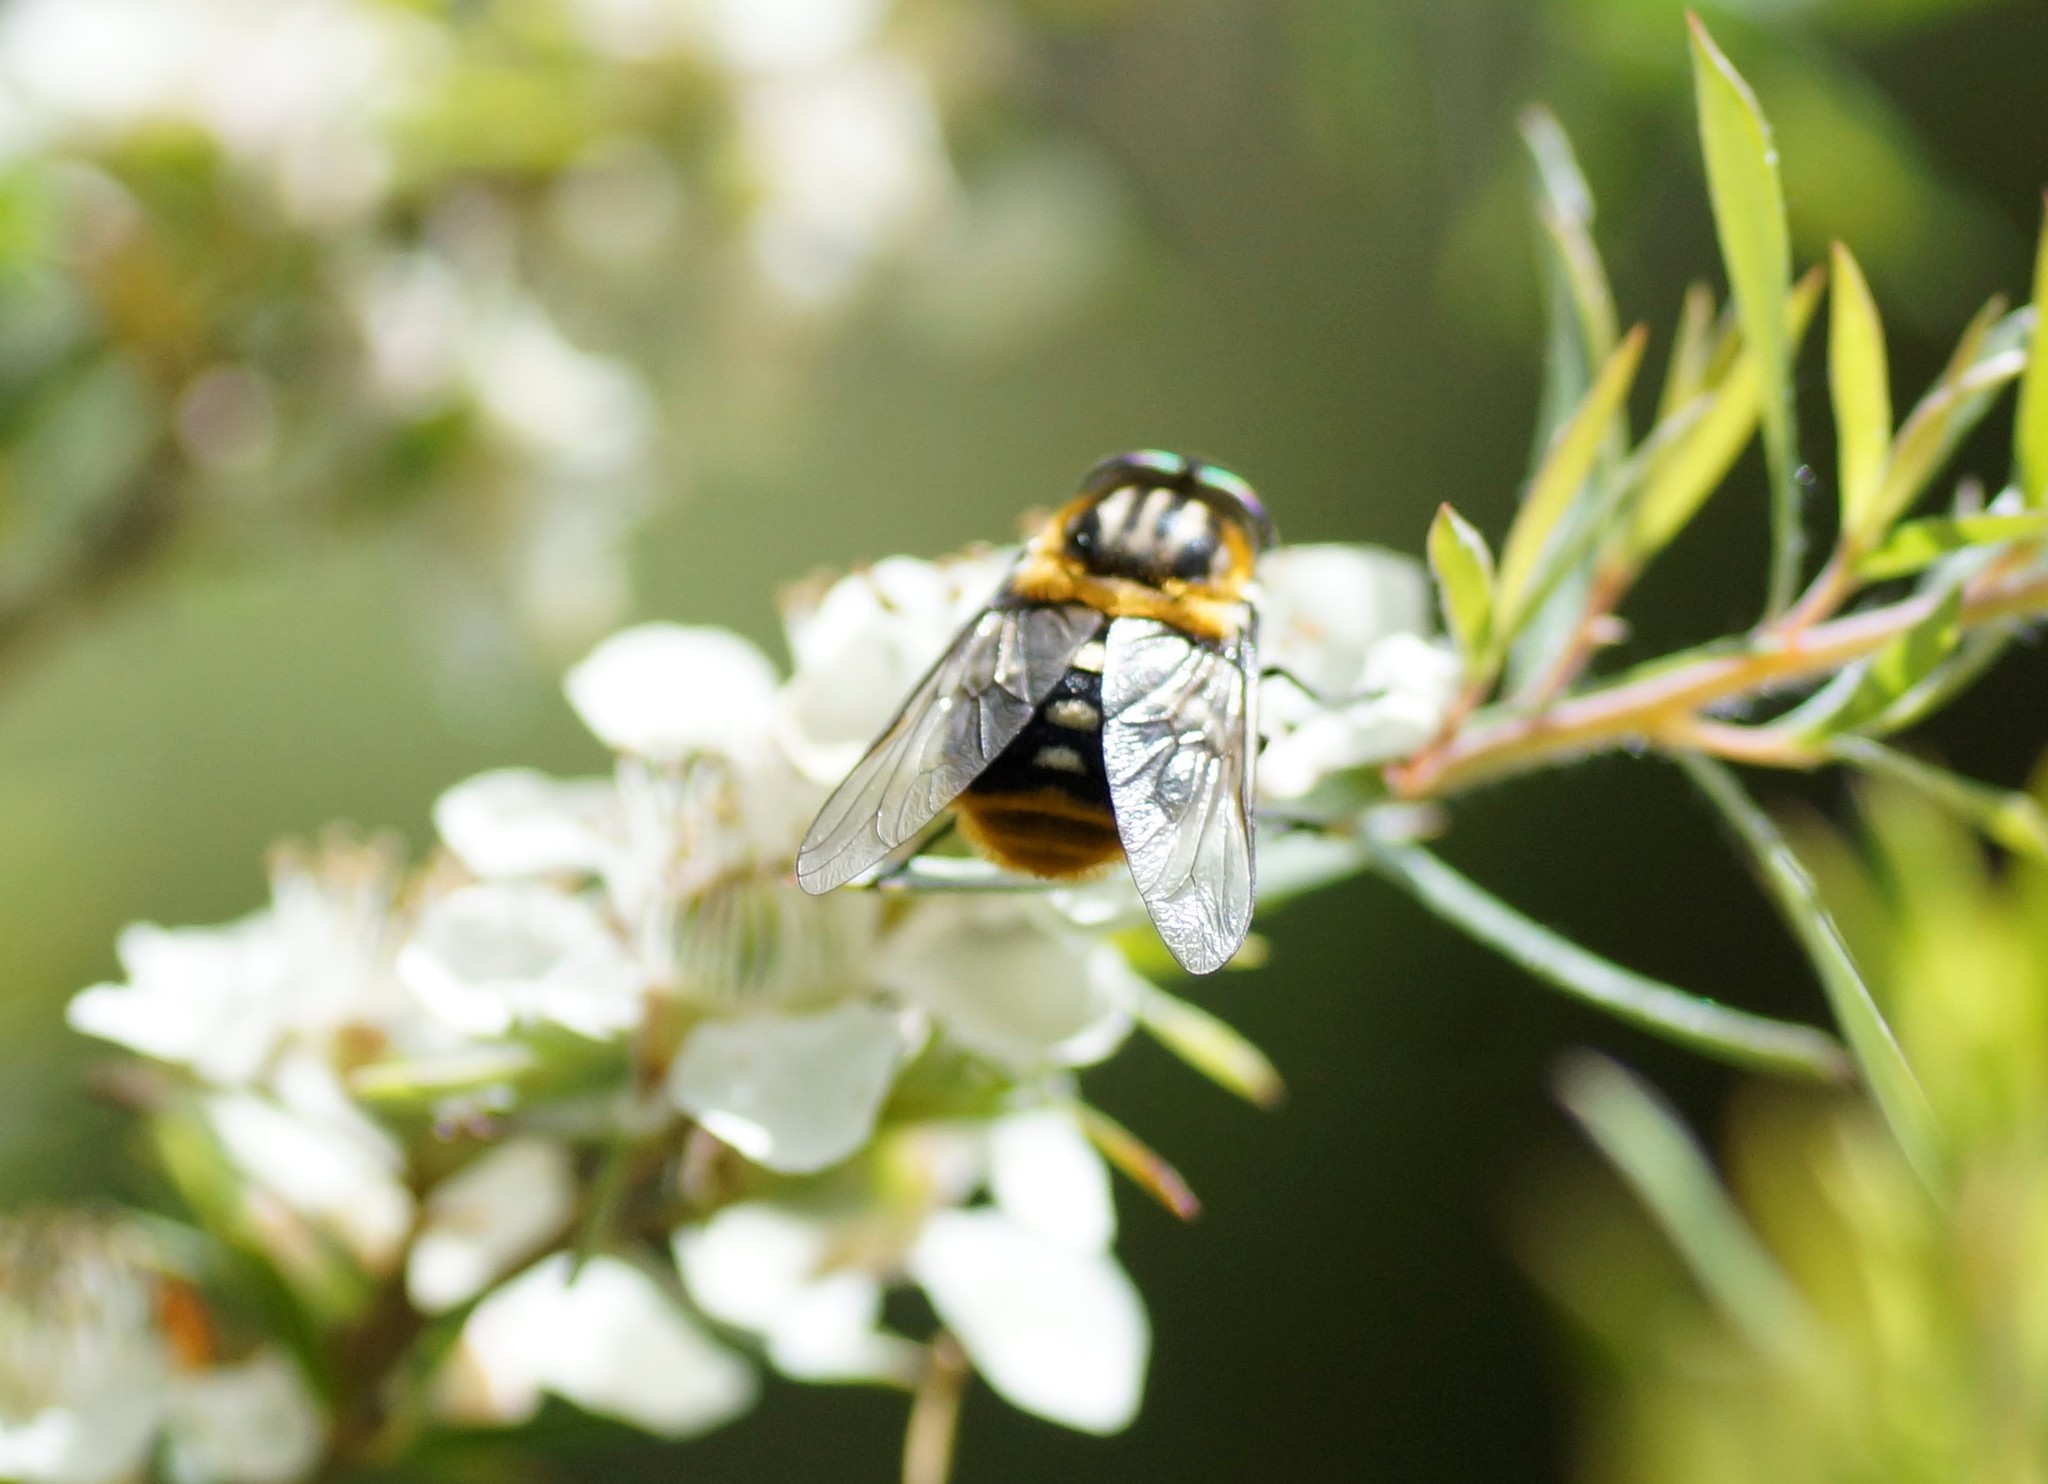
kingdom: Animalia
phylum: Arthropoda
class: Insecta
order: Diptera
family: Tabanidae
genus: Scaptia
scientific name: Scaptia auriflua
